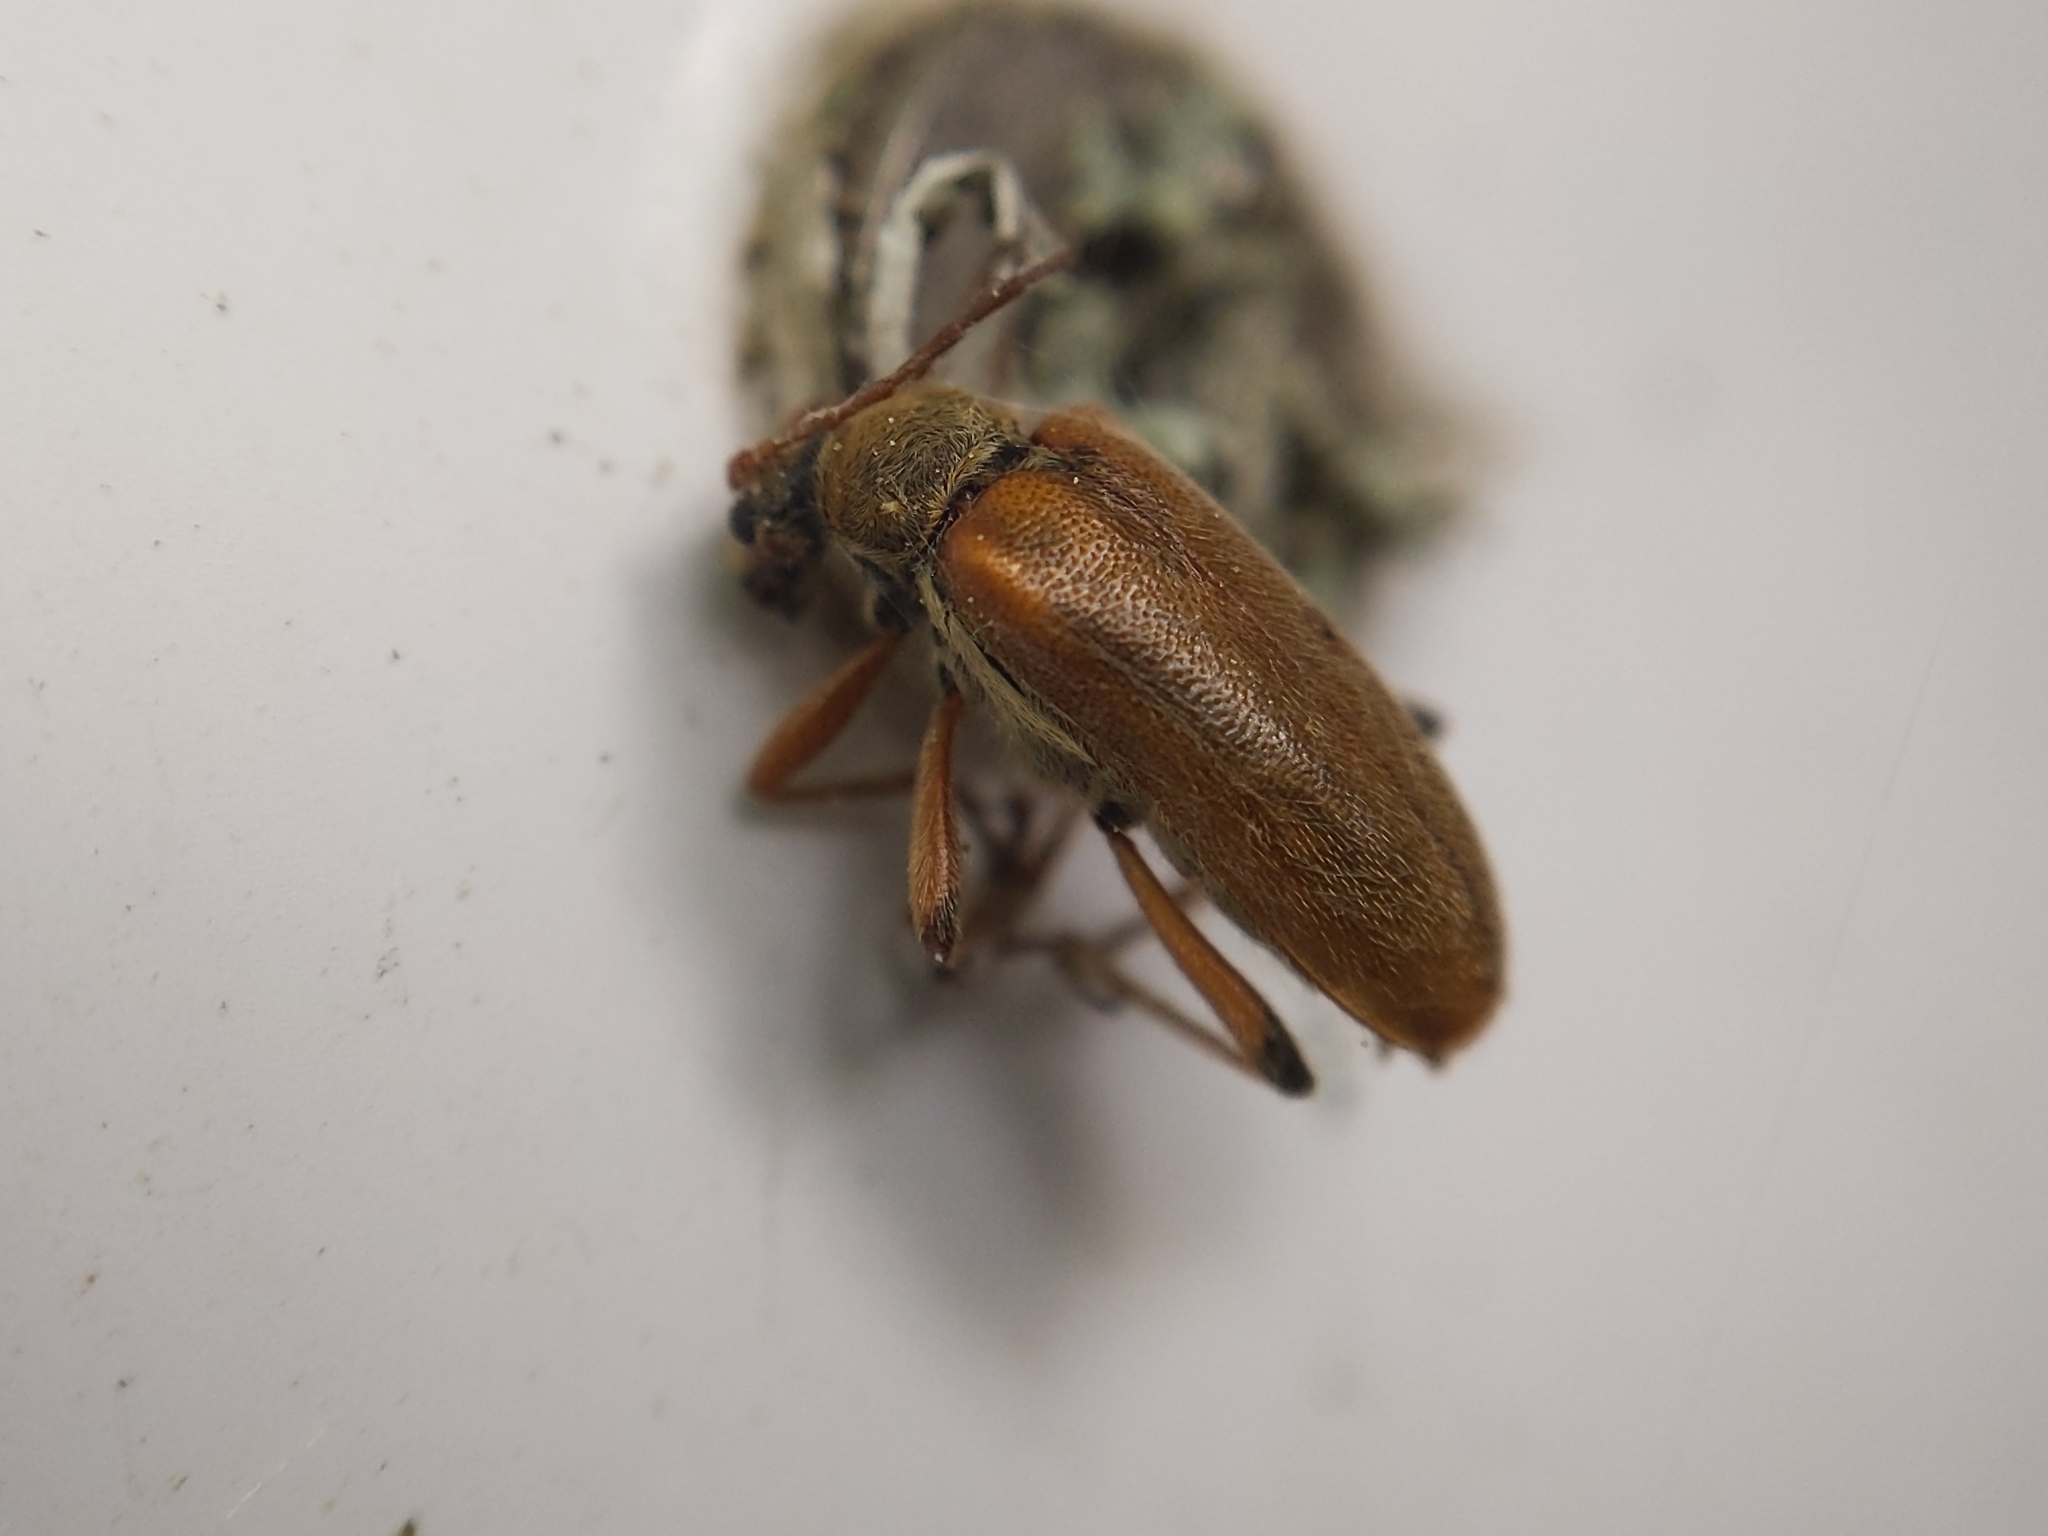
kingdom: Animalia
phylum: Arthropoda
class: Insecta
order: Coleoptera
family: Cerambycidae
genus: Cortodera
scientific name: Cortodera humeralis
